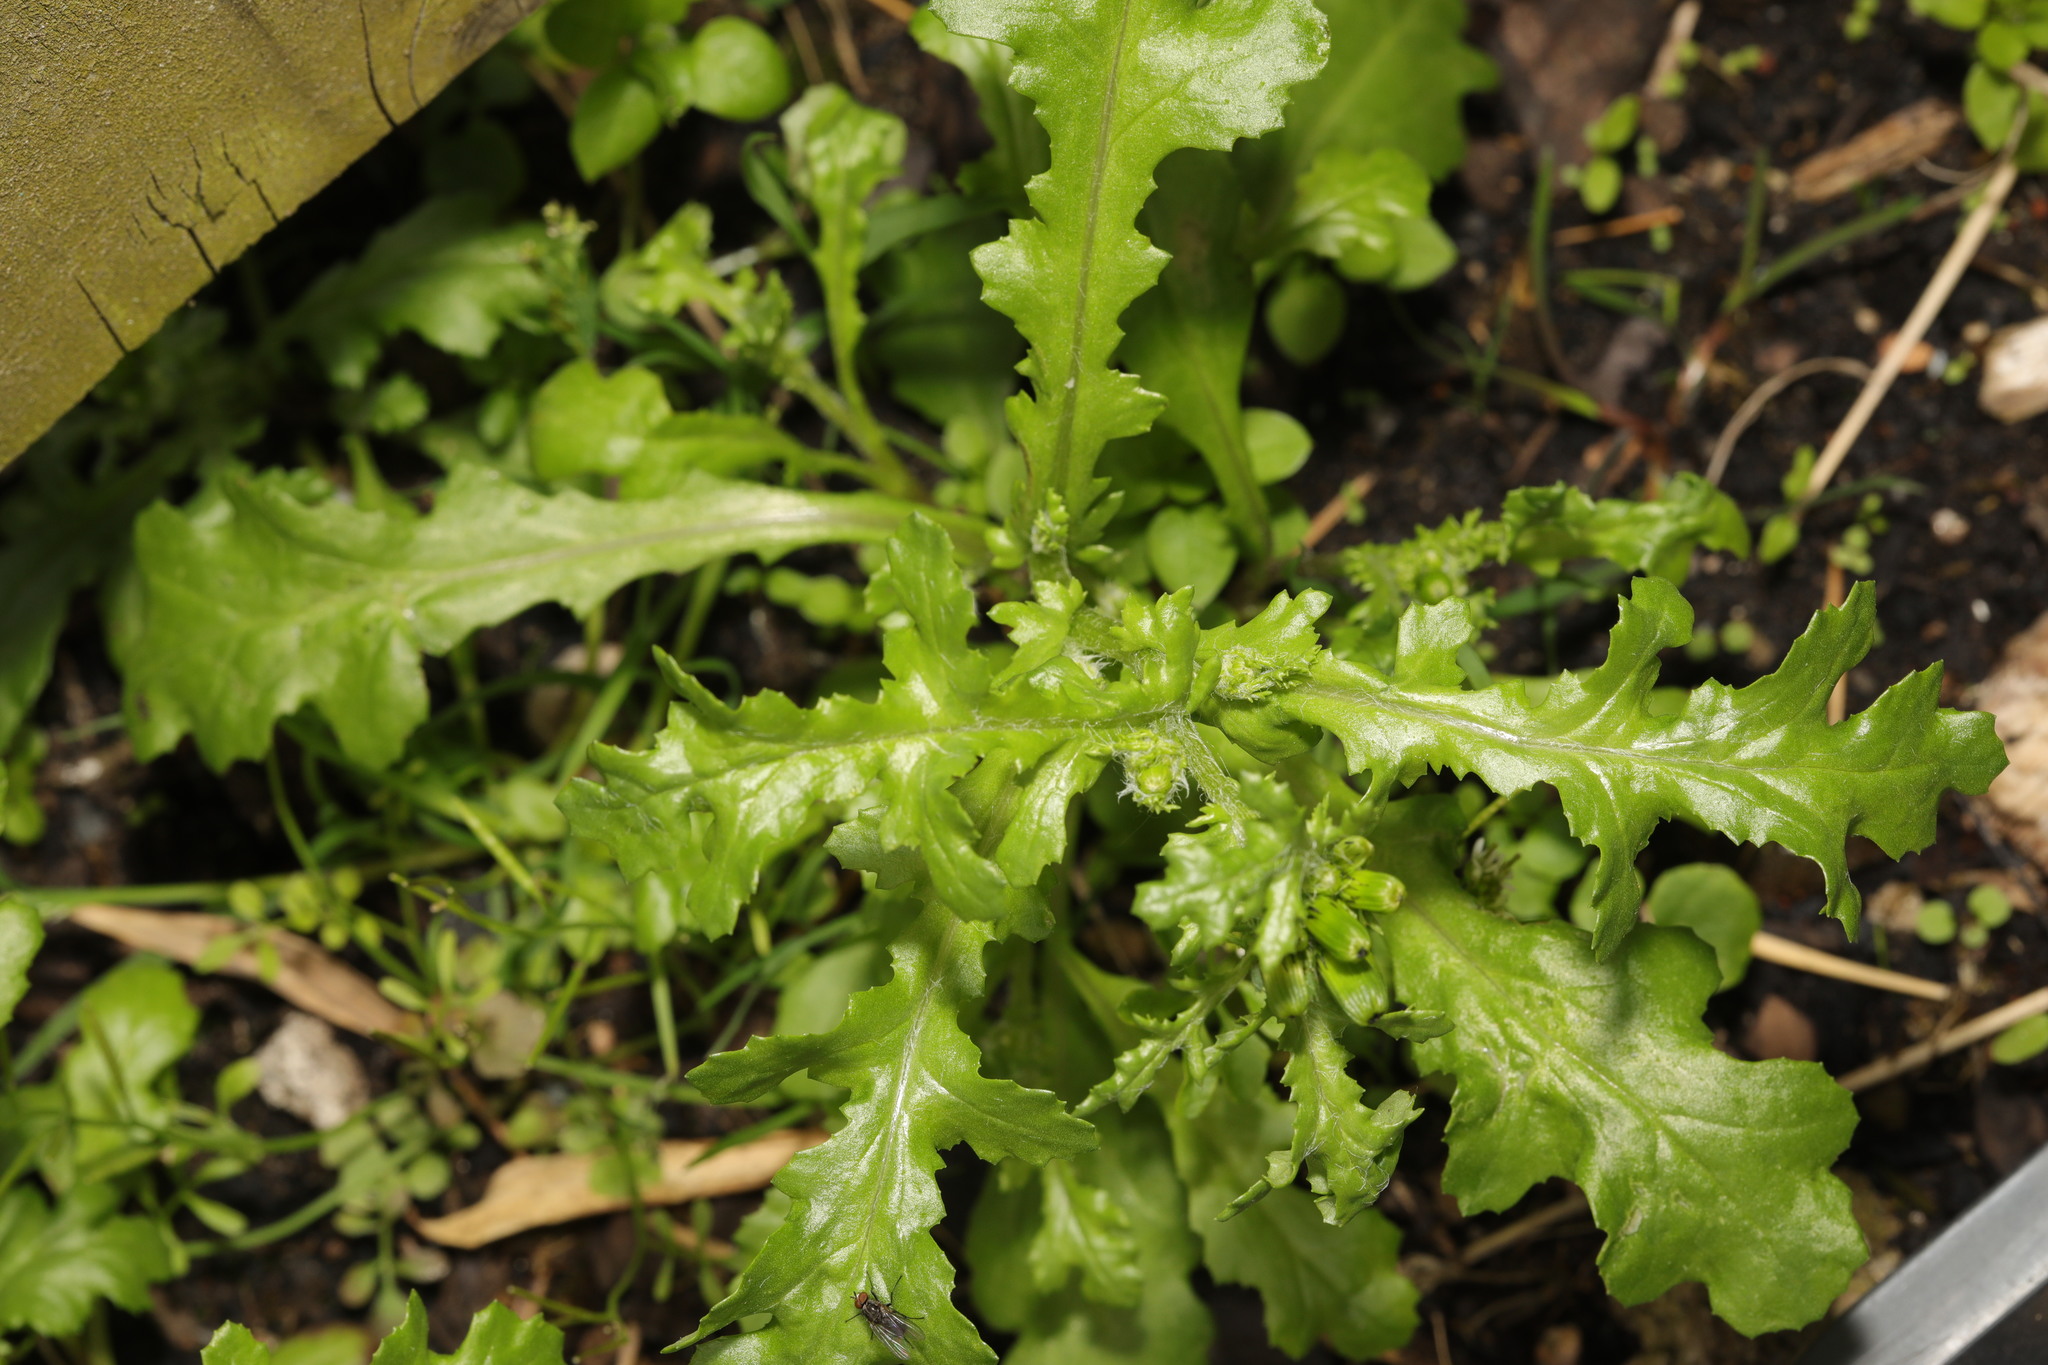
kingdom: Plantae
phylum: Tracheophyta
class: Magnoliopsida
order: Asterales
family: Asteraceae
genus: Senecio
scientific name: Senecio vulgaris
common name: Old-man-in-the-spring
